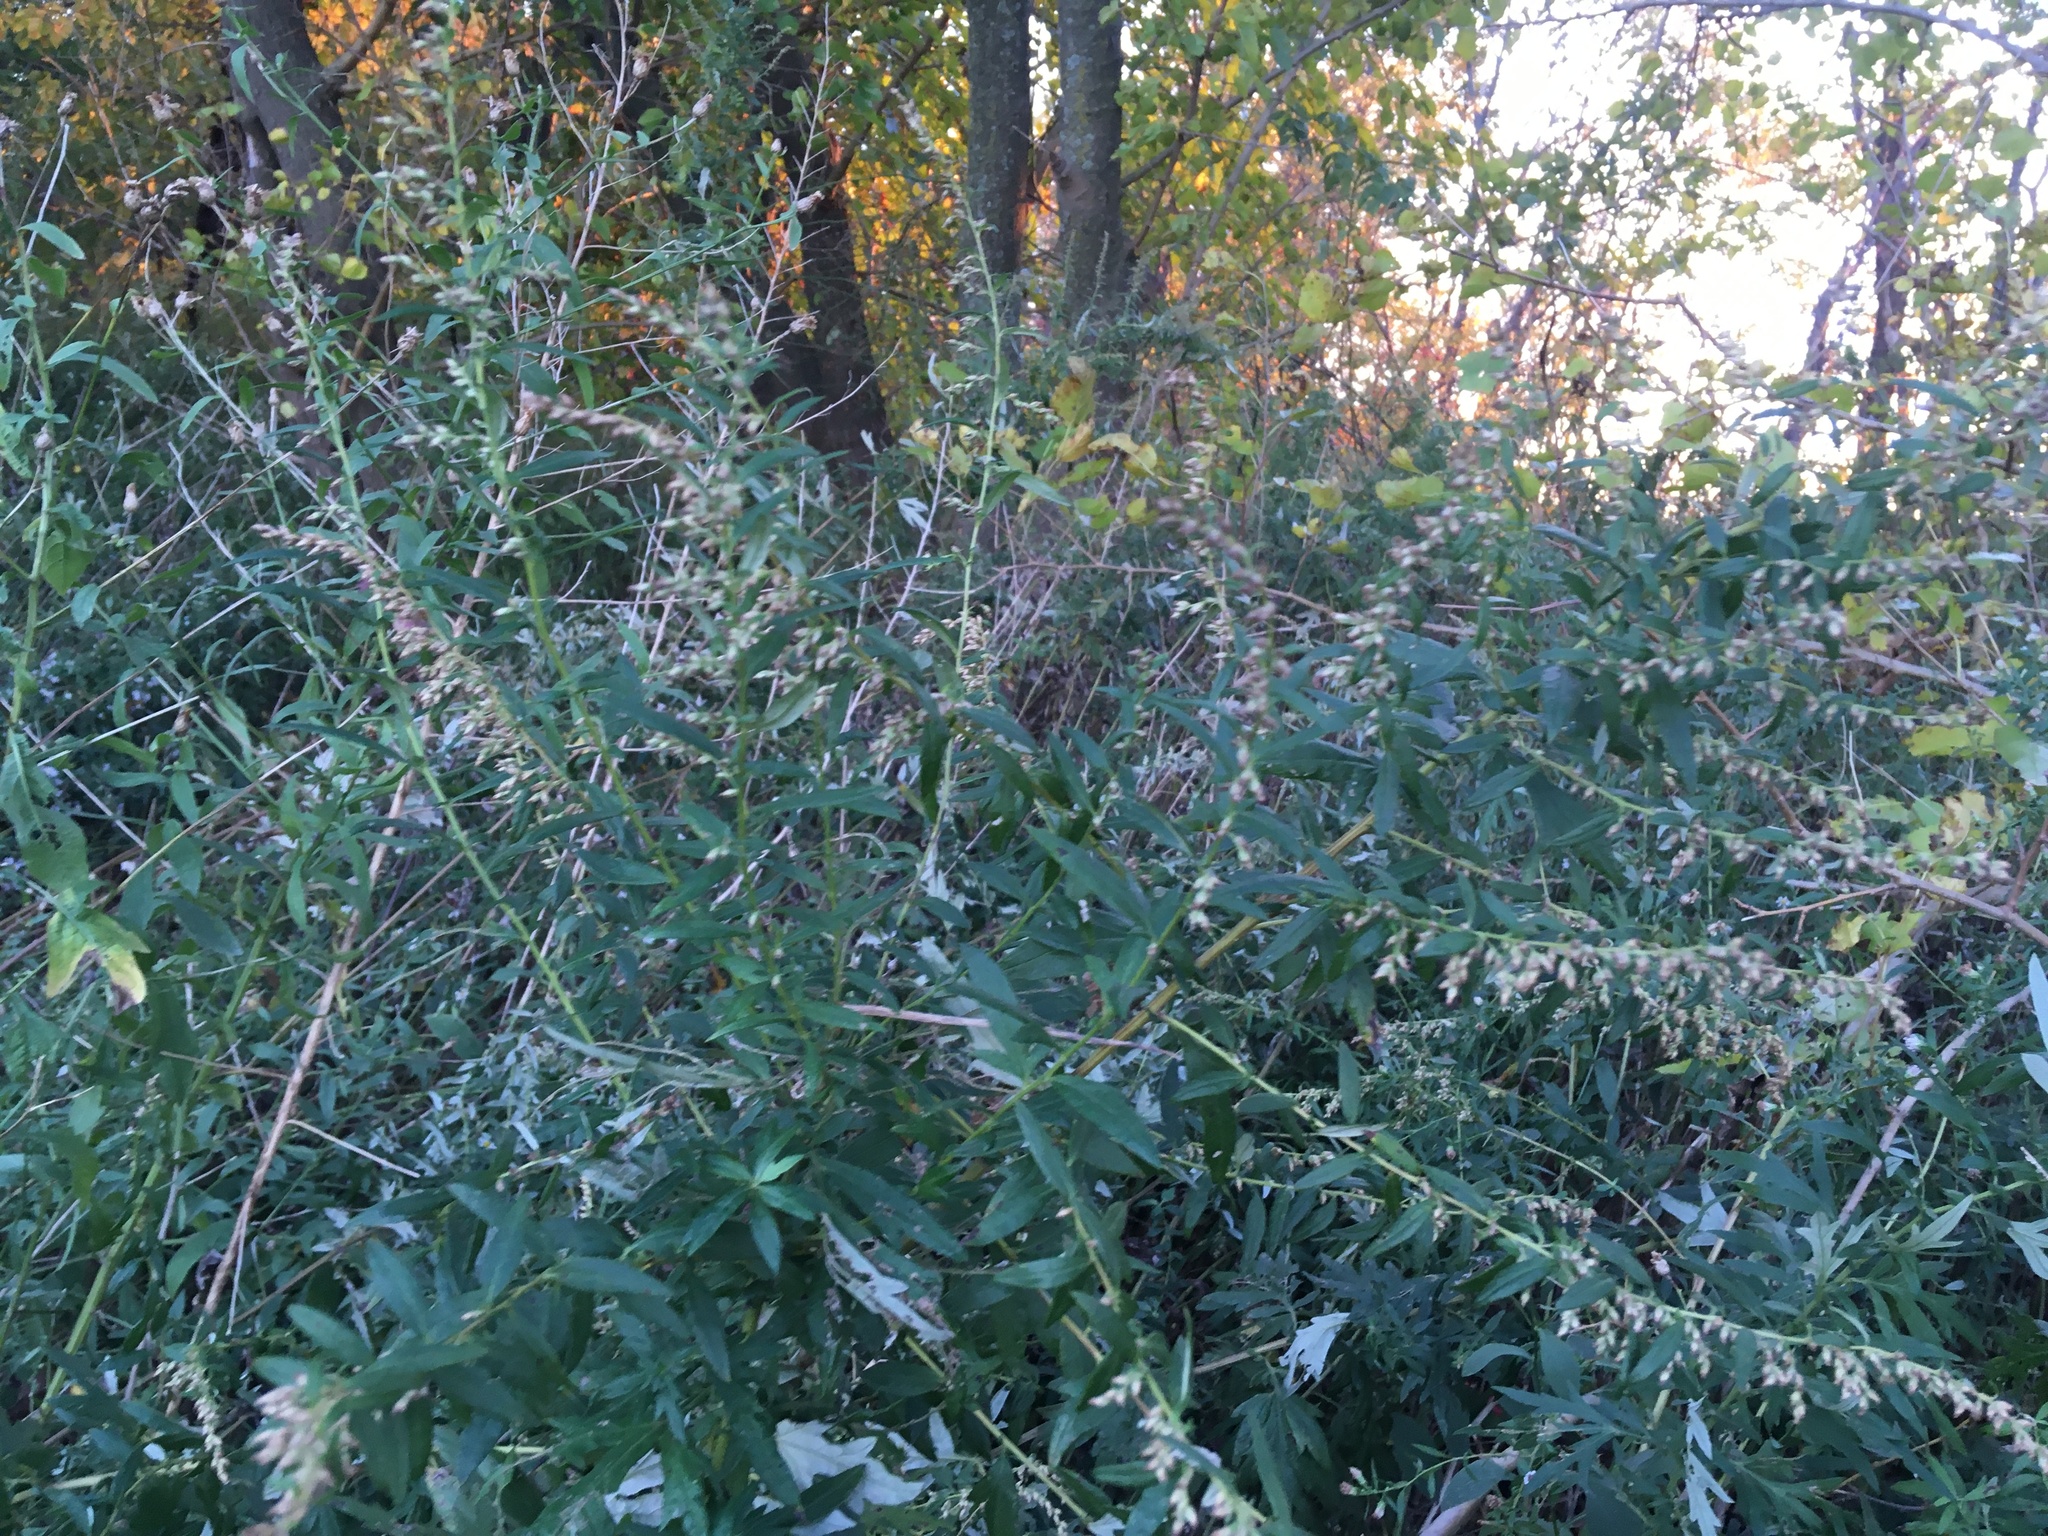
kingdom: Plantae
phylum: Tracheophyta
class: Magnoliopsida
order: Asterales
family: Asteraceae
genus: Artemisia
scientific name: Artemisia vulgaris
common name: Mugwort
